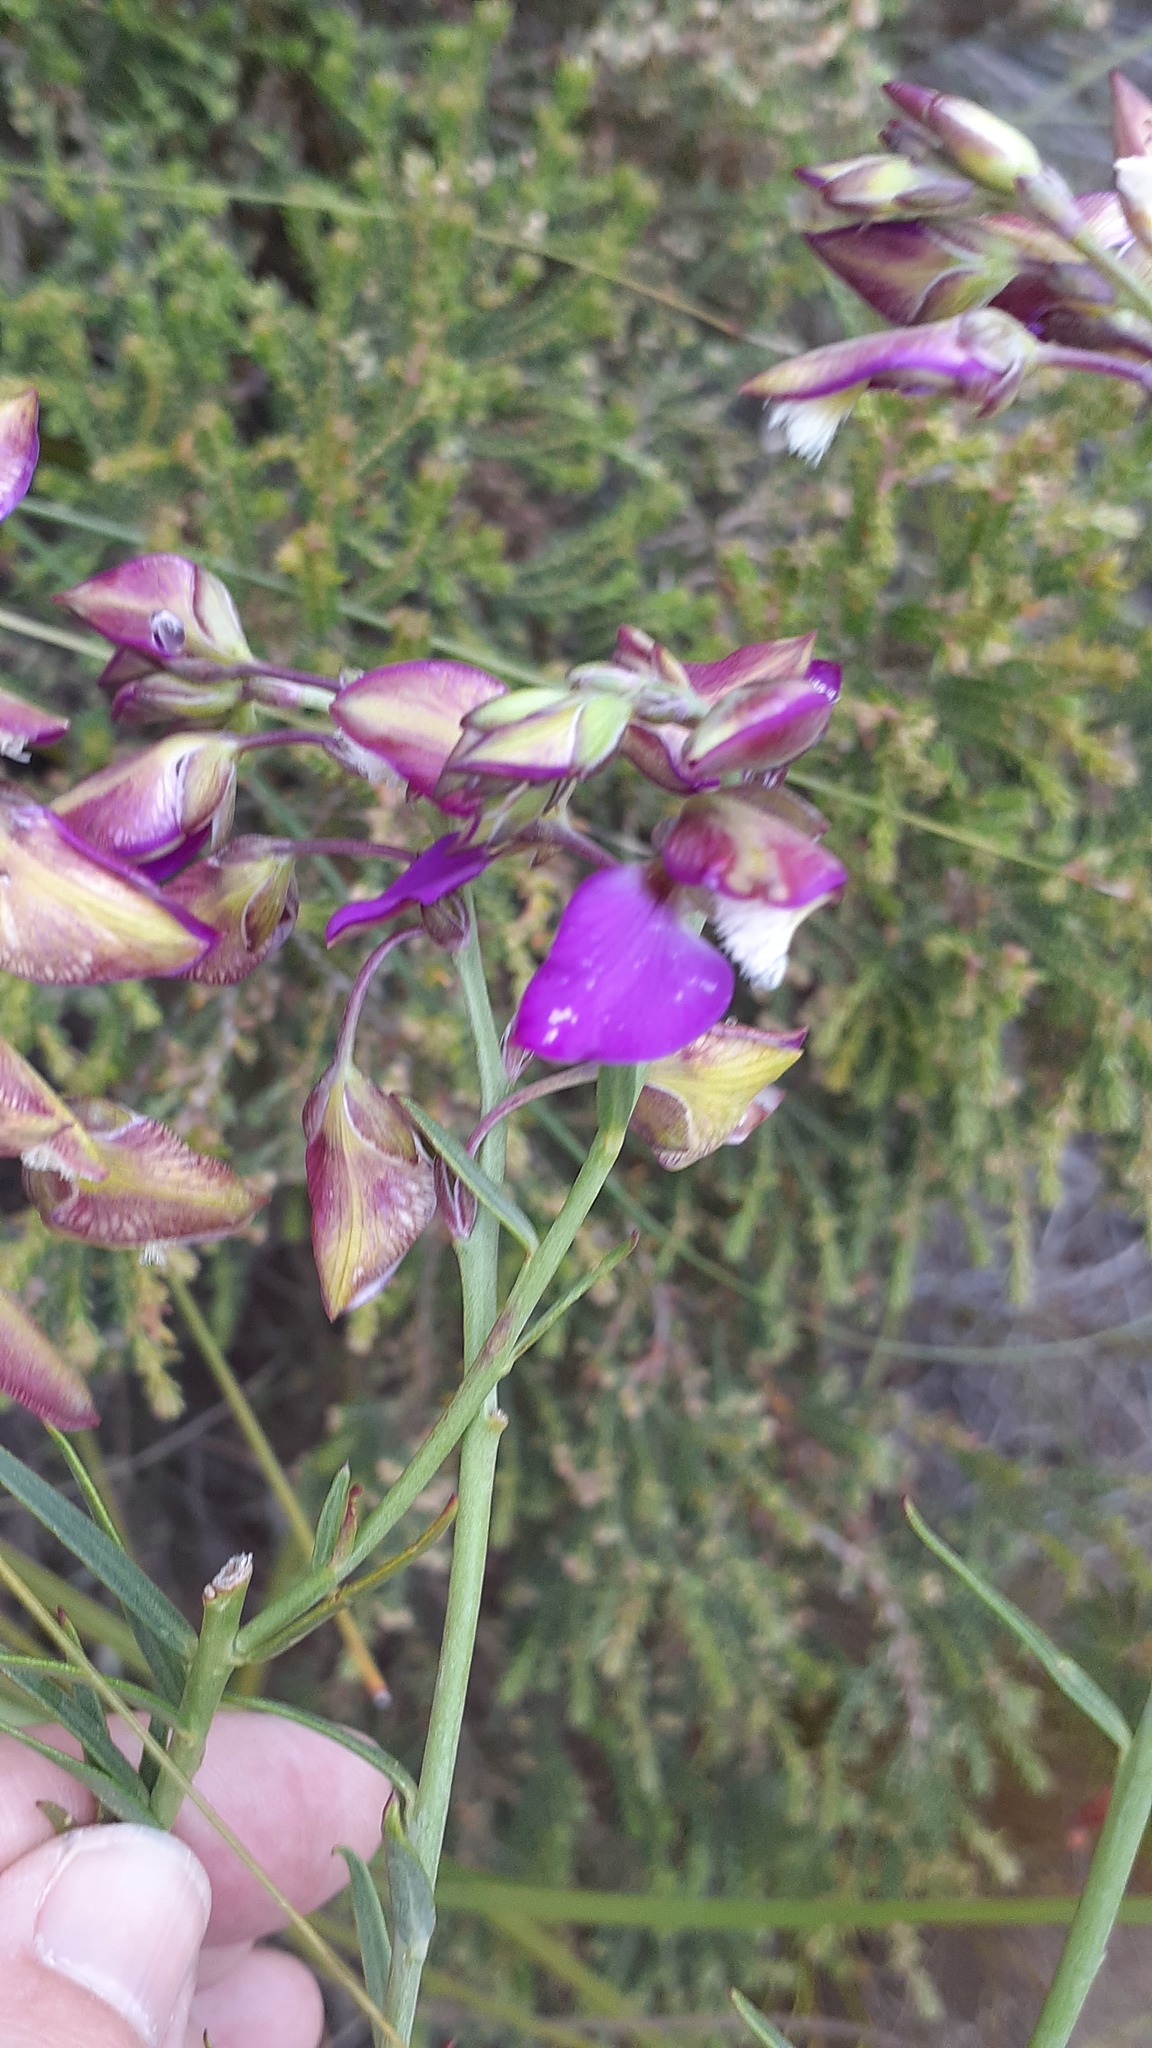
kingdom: Plantae
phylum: Tracheophyta
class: Magnoliopsida
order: Fabales
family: Polygalaceae
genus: Polygala
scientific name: Polygala bracteolata
